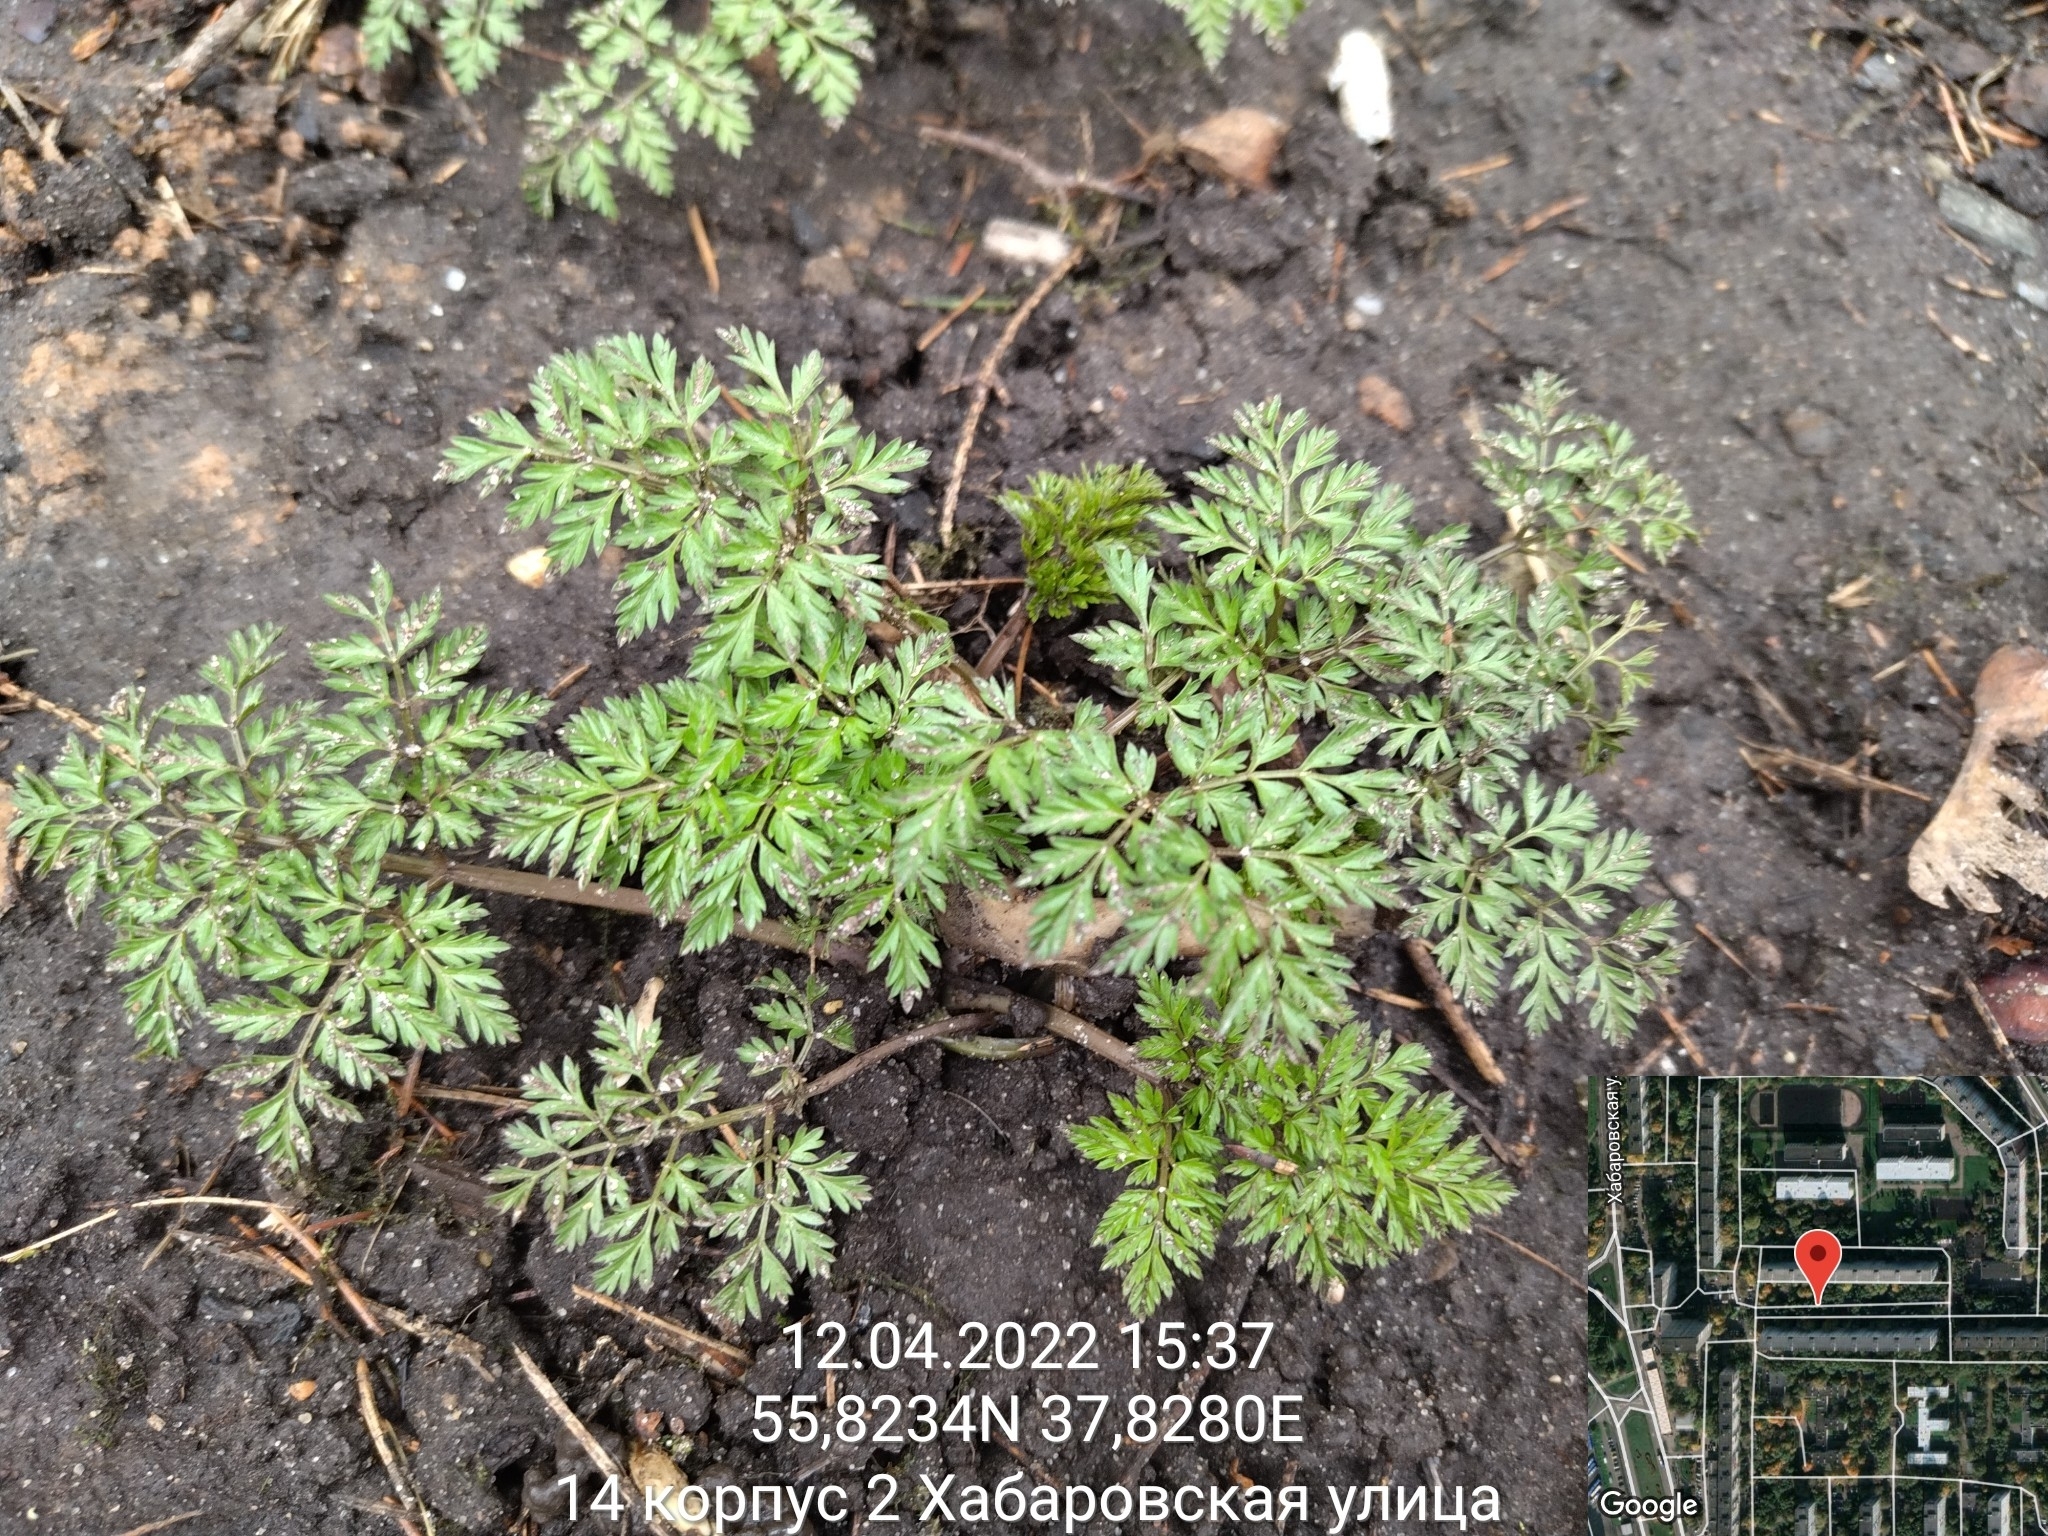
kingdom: Plantae
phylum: Tracheophyta
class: Magnoliopsida
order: Apiales
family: Apiaceae
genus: Anthriscus
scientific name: Anthriscus sylvestris
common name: Cow parsley
